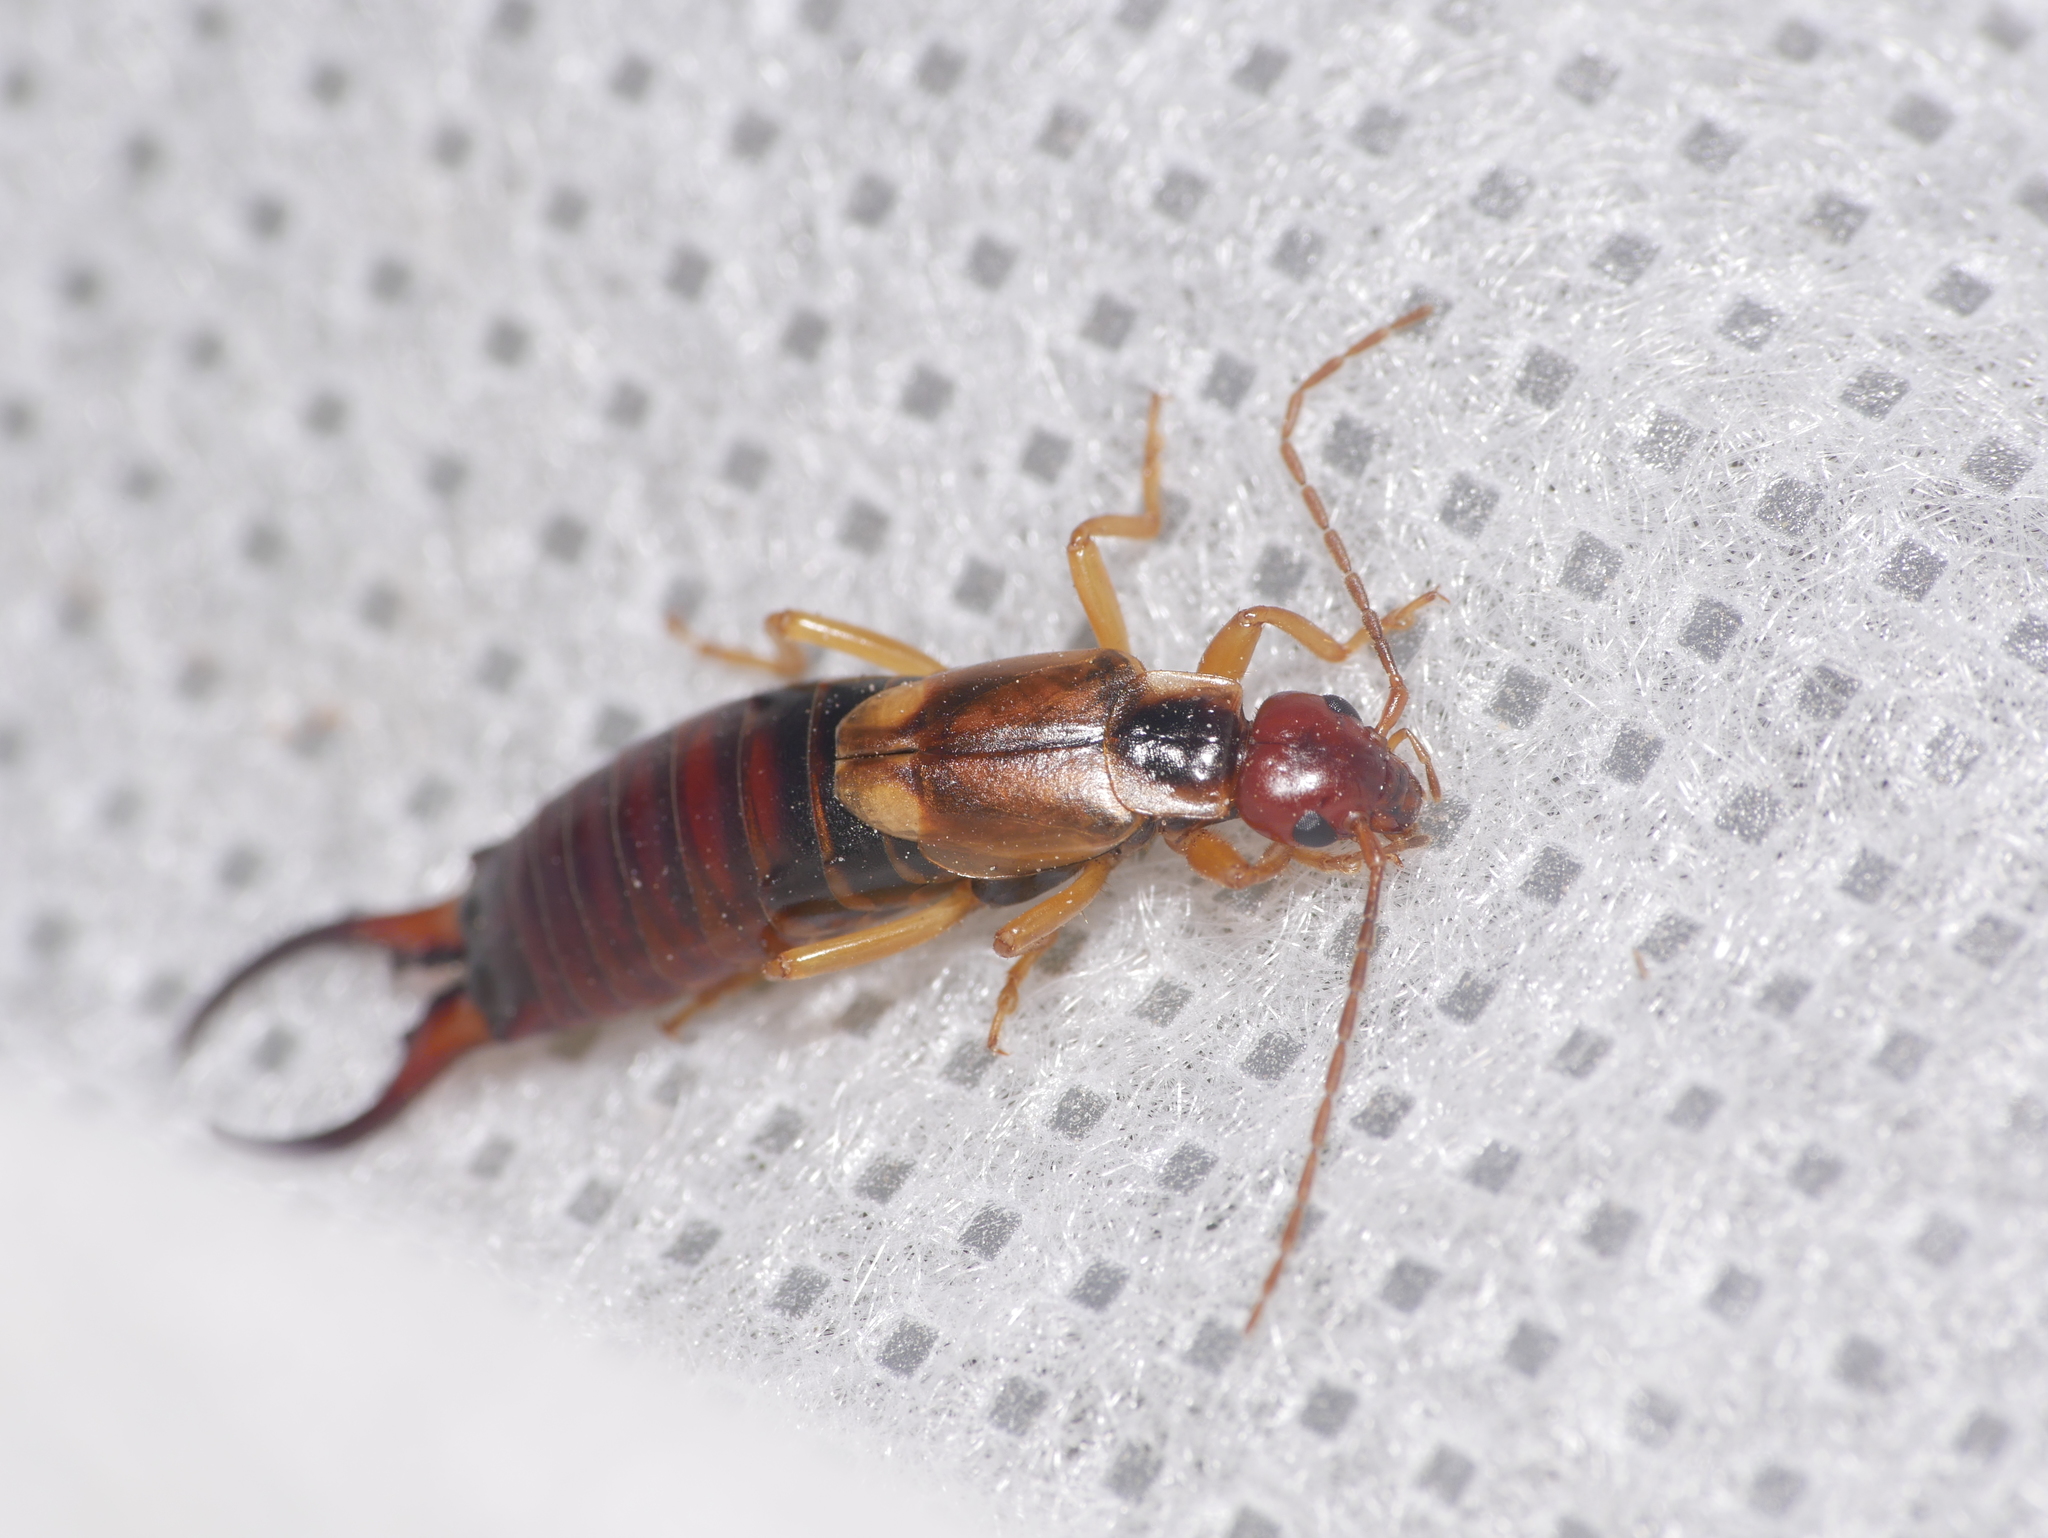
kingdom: Animalia
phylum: Arthropoda
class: Insecta
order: Dermaptera
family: Forficulidae
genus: Forficula
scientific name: Forficula
